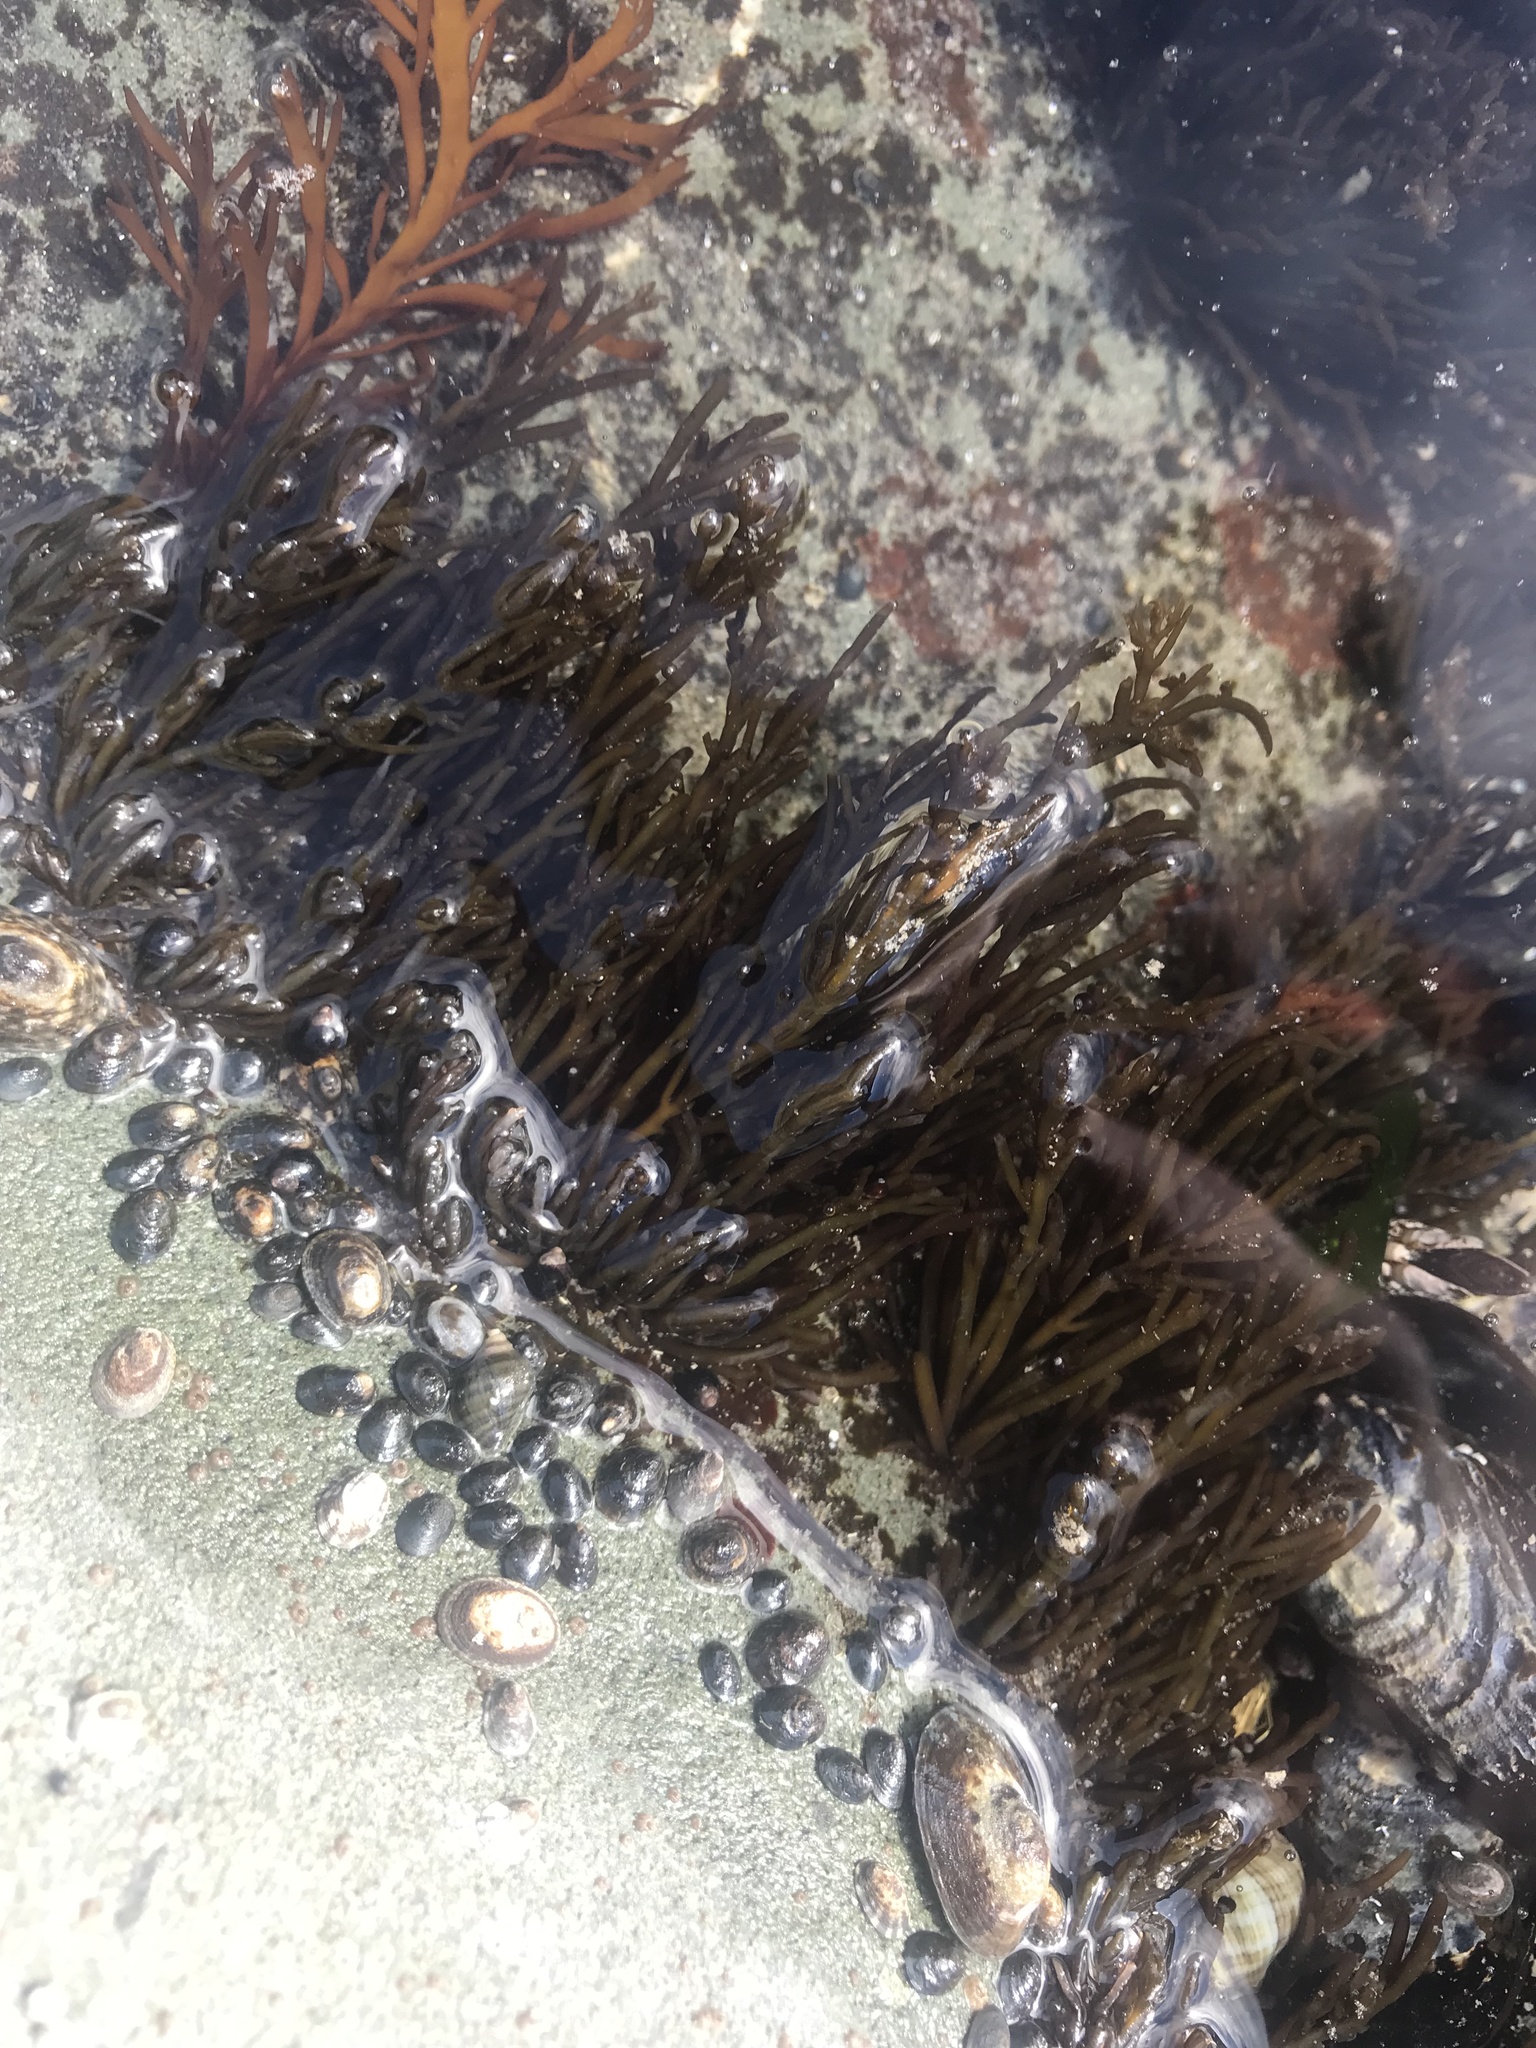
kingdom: Plantae
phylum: Chlorophyta
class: Ulvophyceae
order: Bryopsidales
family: Codiaceae
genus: Codium
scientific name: Codium fragile
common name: Dead man's fingers
